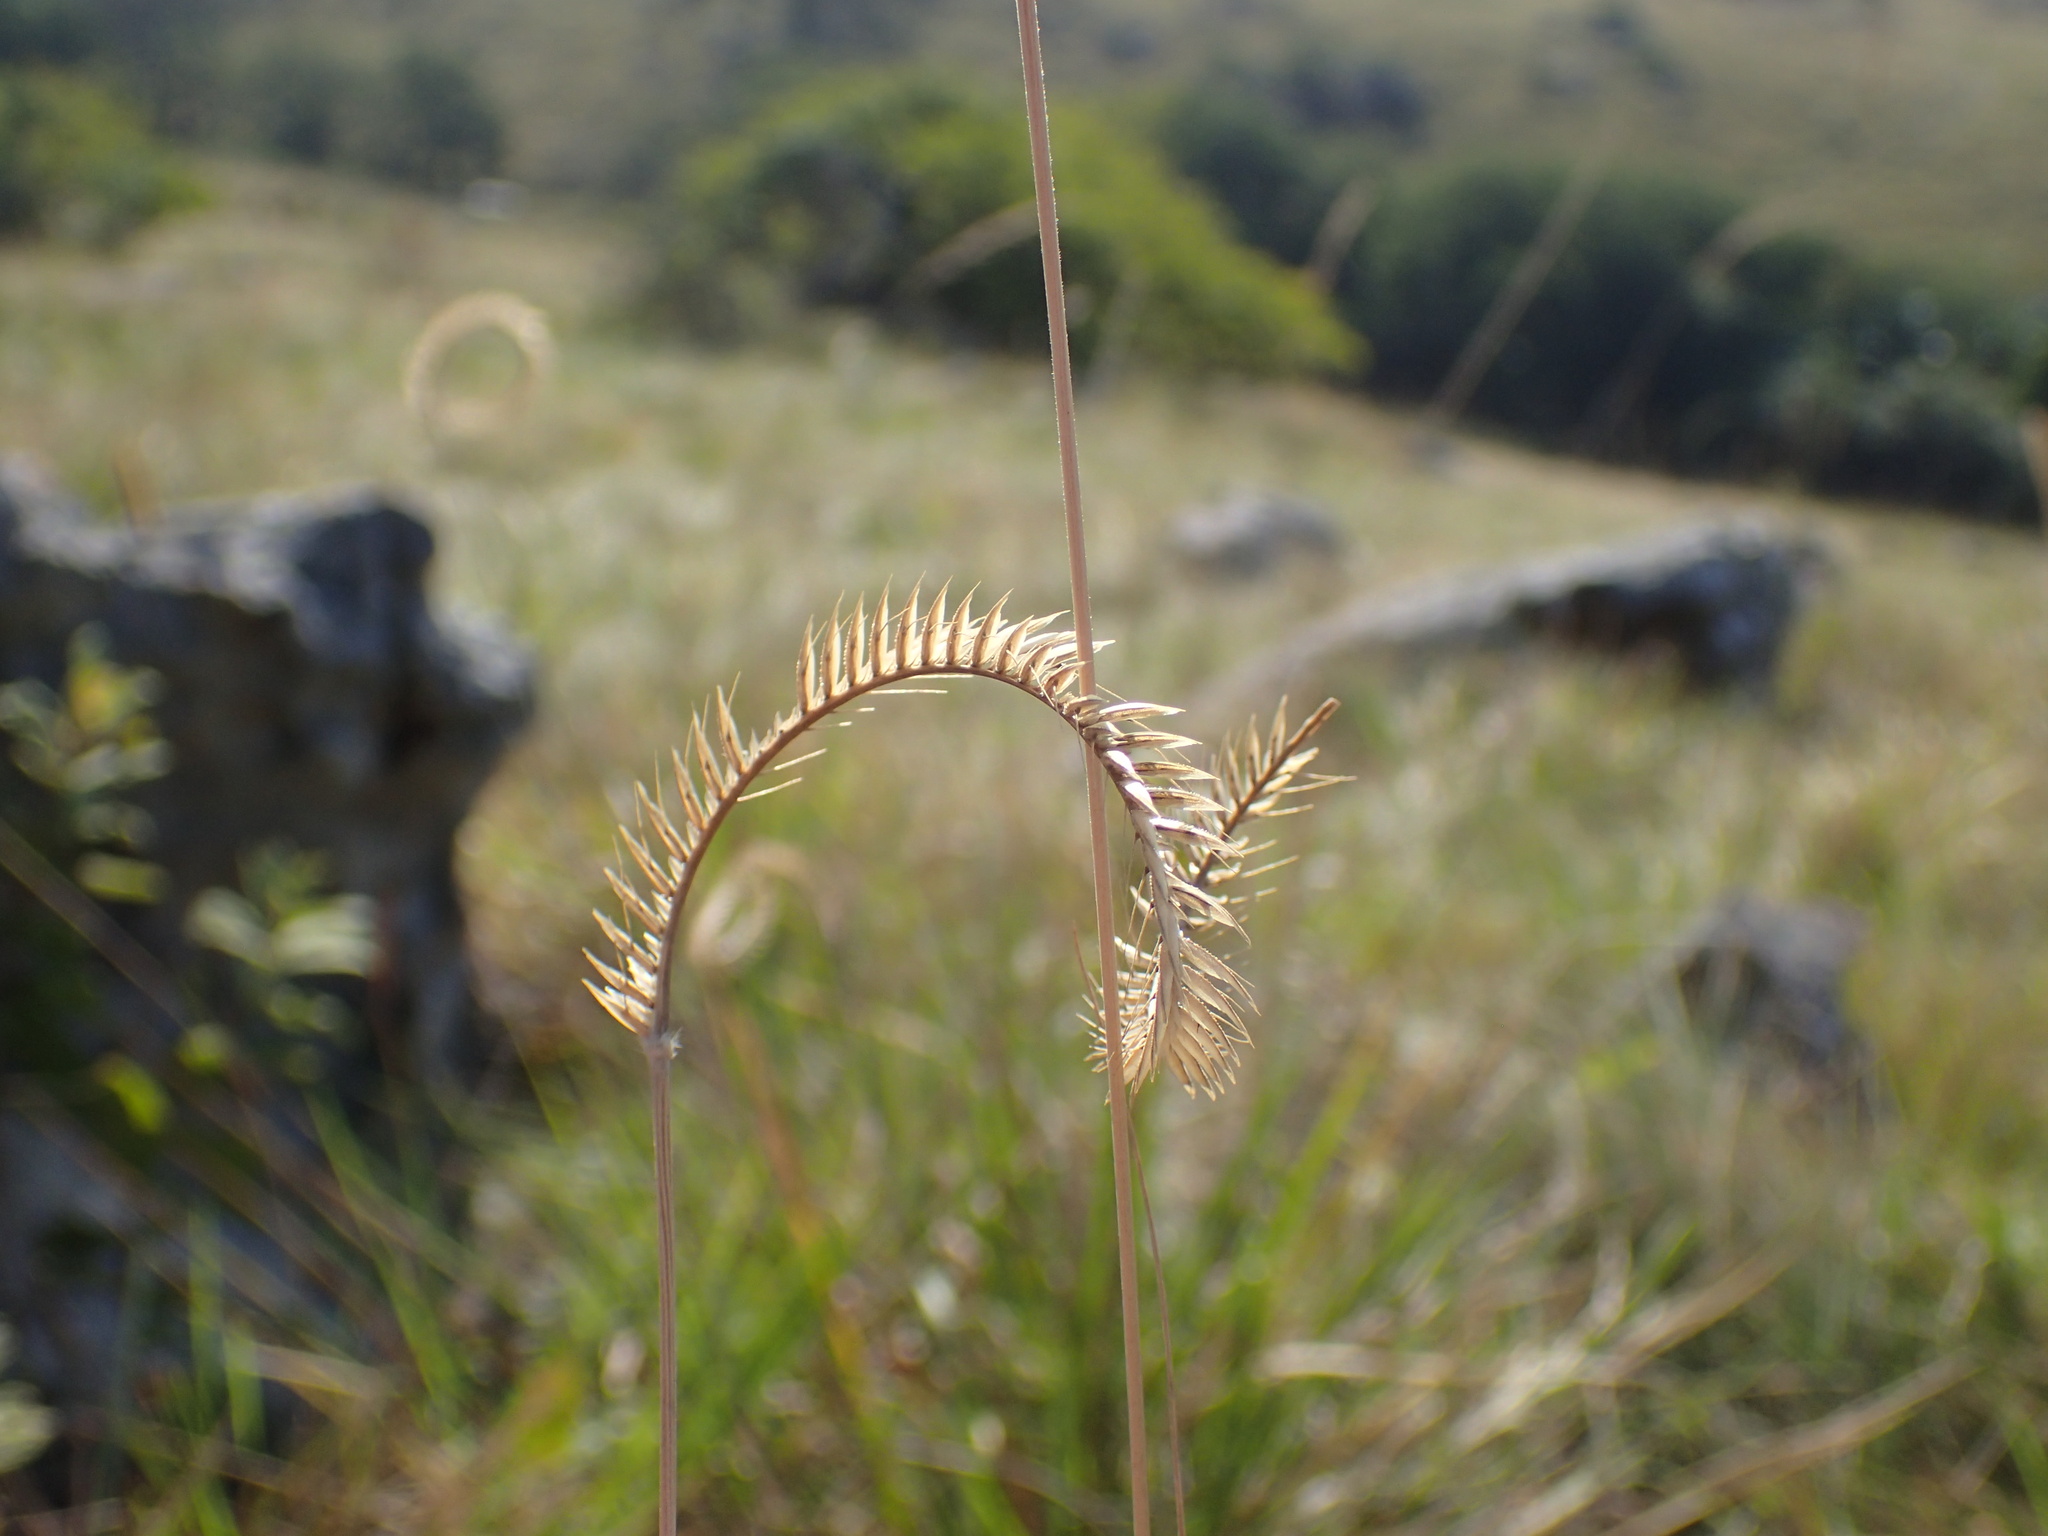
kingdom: Plantae
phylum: Tracheophyta
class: Liliopsida
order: Poales
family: Poaceae
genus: Ctenium
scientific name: Ctenium concinnum
